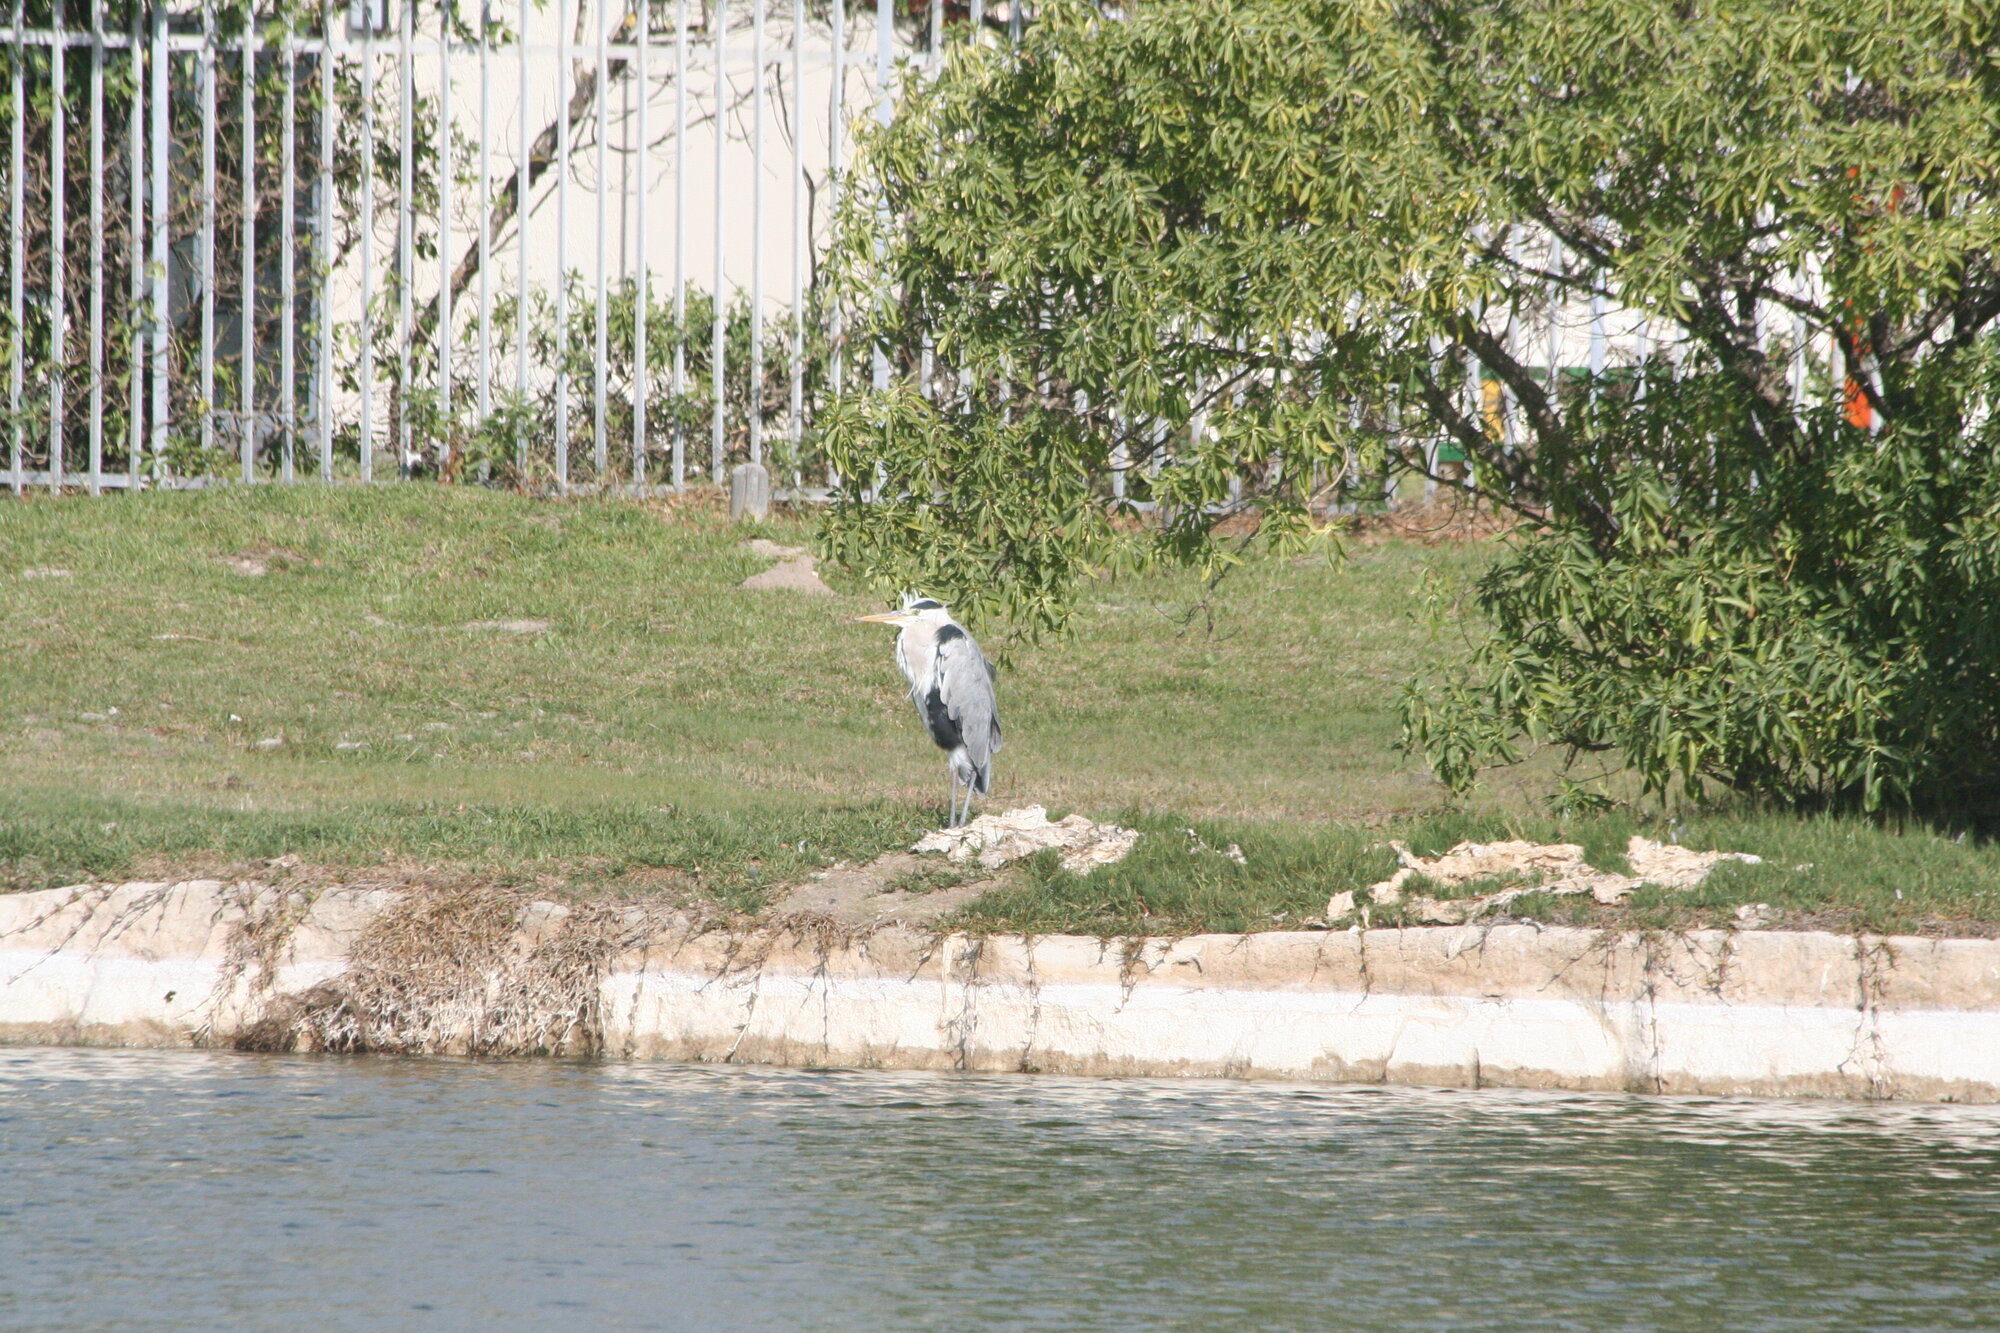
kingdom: Animalia
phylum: Chordata
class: Aves
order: Pelecaniformes
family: Ardeidae
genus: Ardea
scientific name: Ardea cinerea
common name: Grey heron
